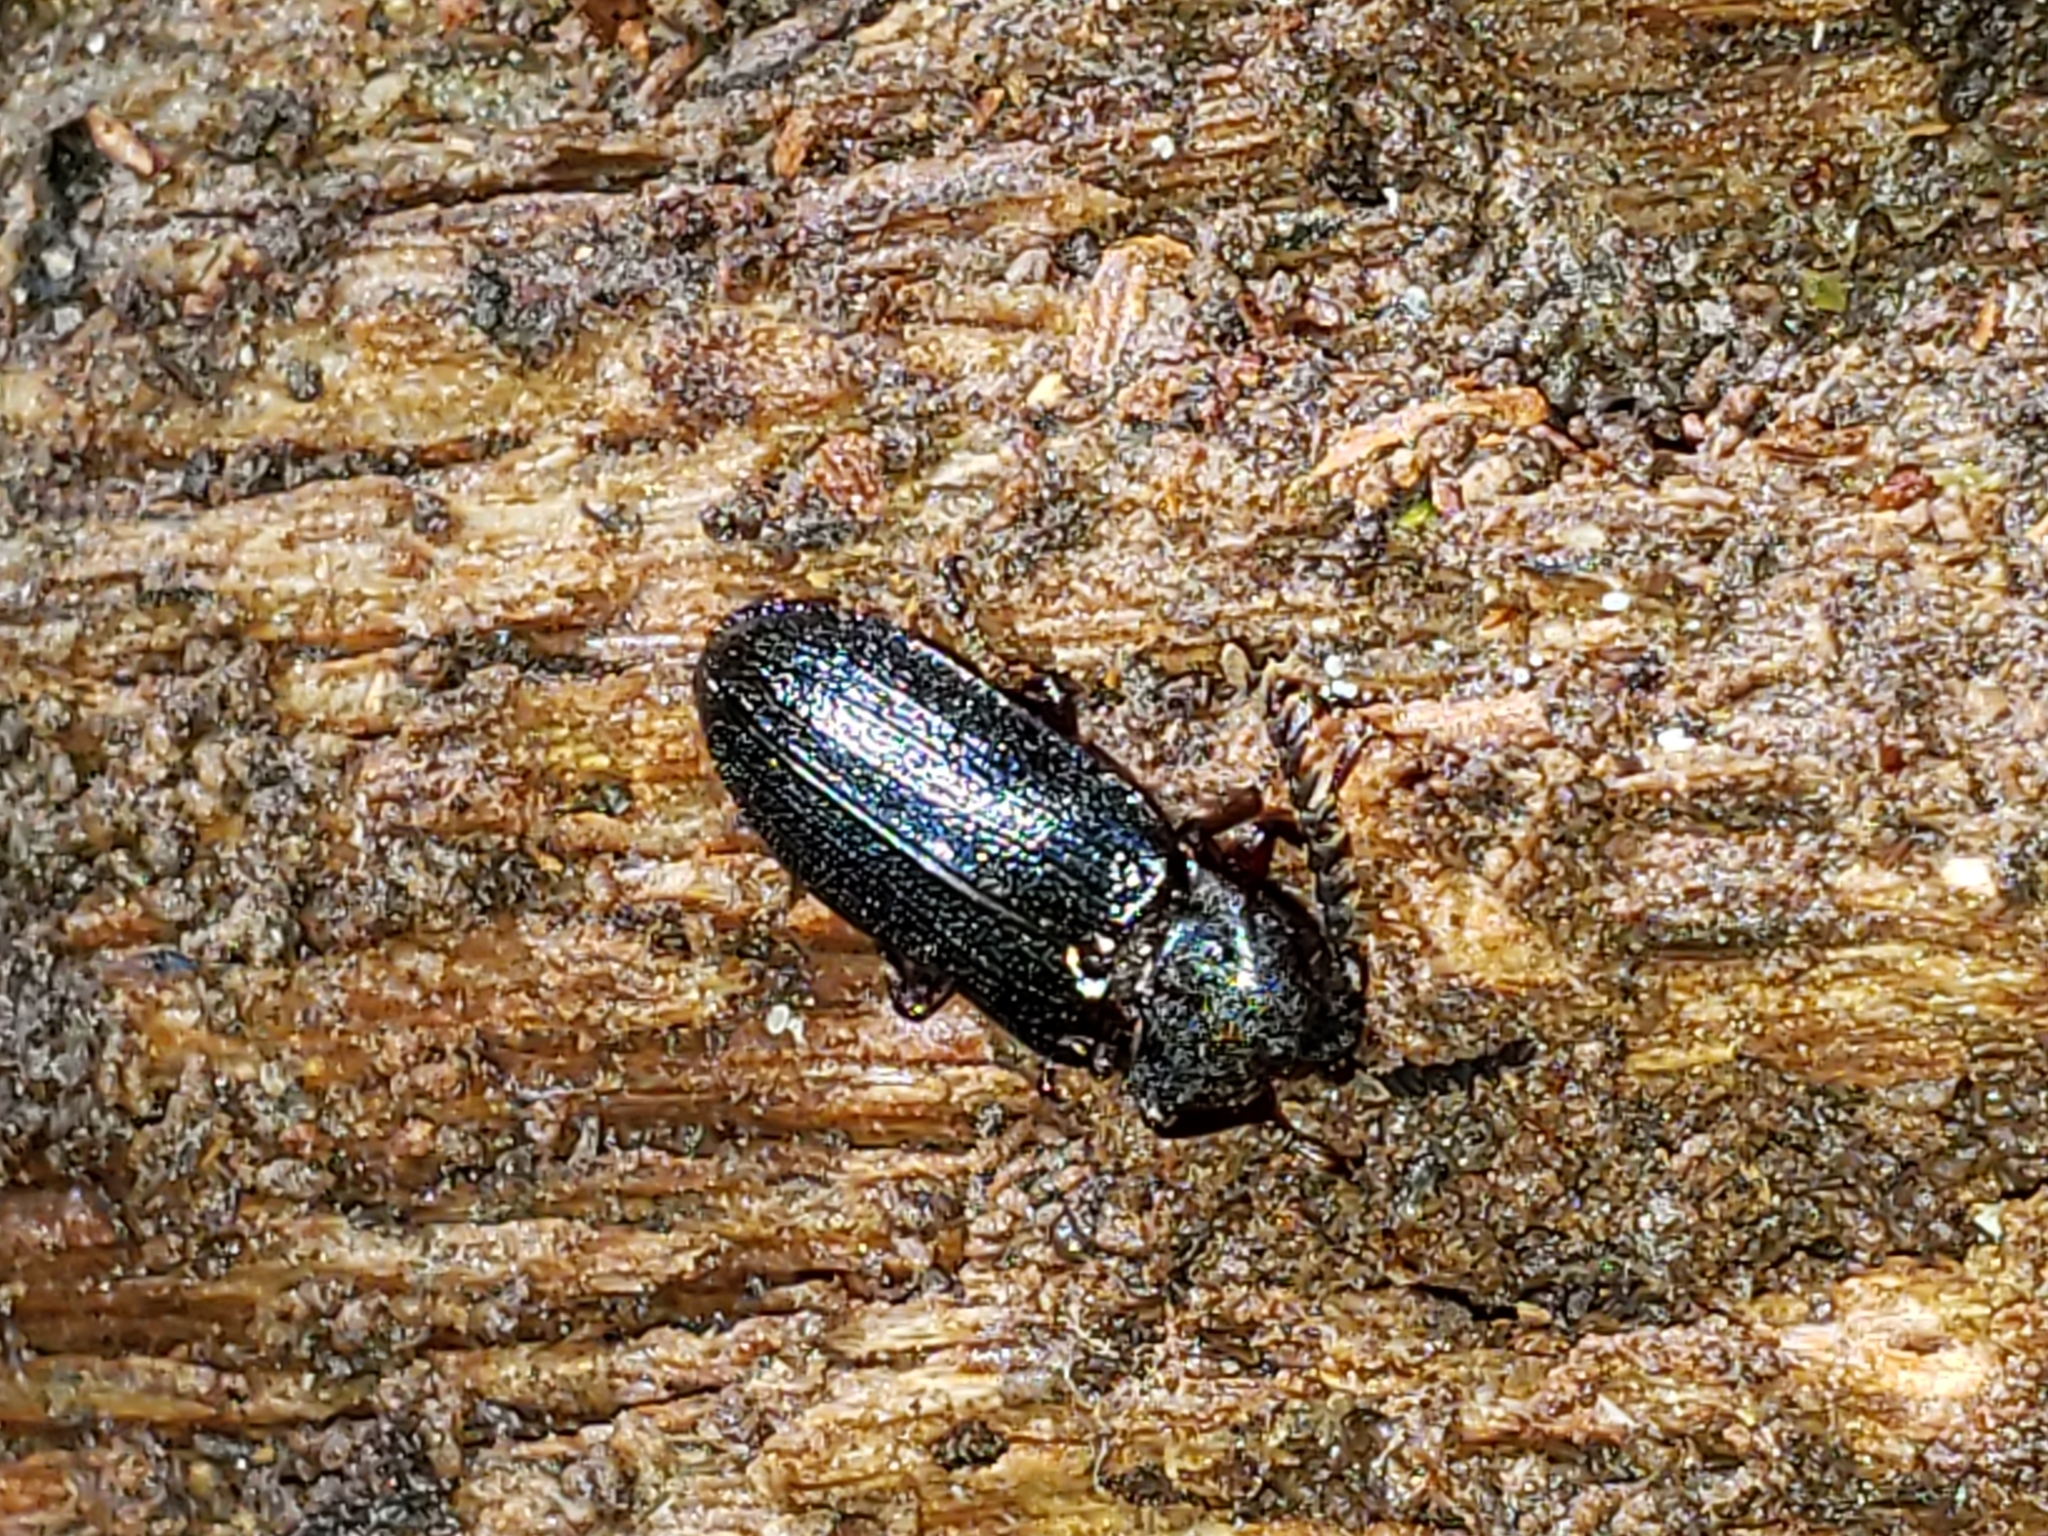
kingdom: Animalia
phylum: Arthropoda
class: Insecta
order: Coleoptera
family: Callirhipidae
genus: Zenoa
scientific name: Zenoa picea
